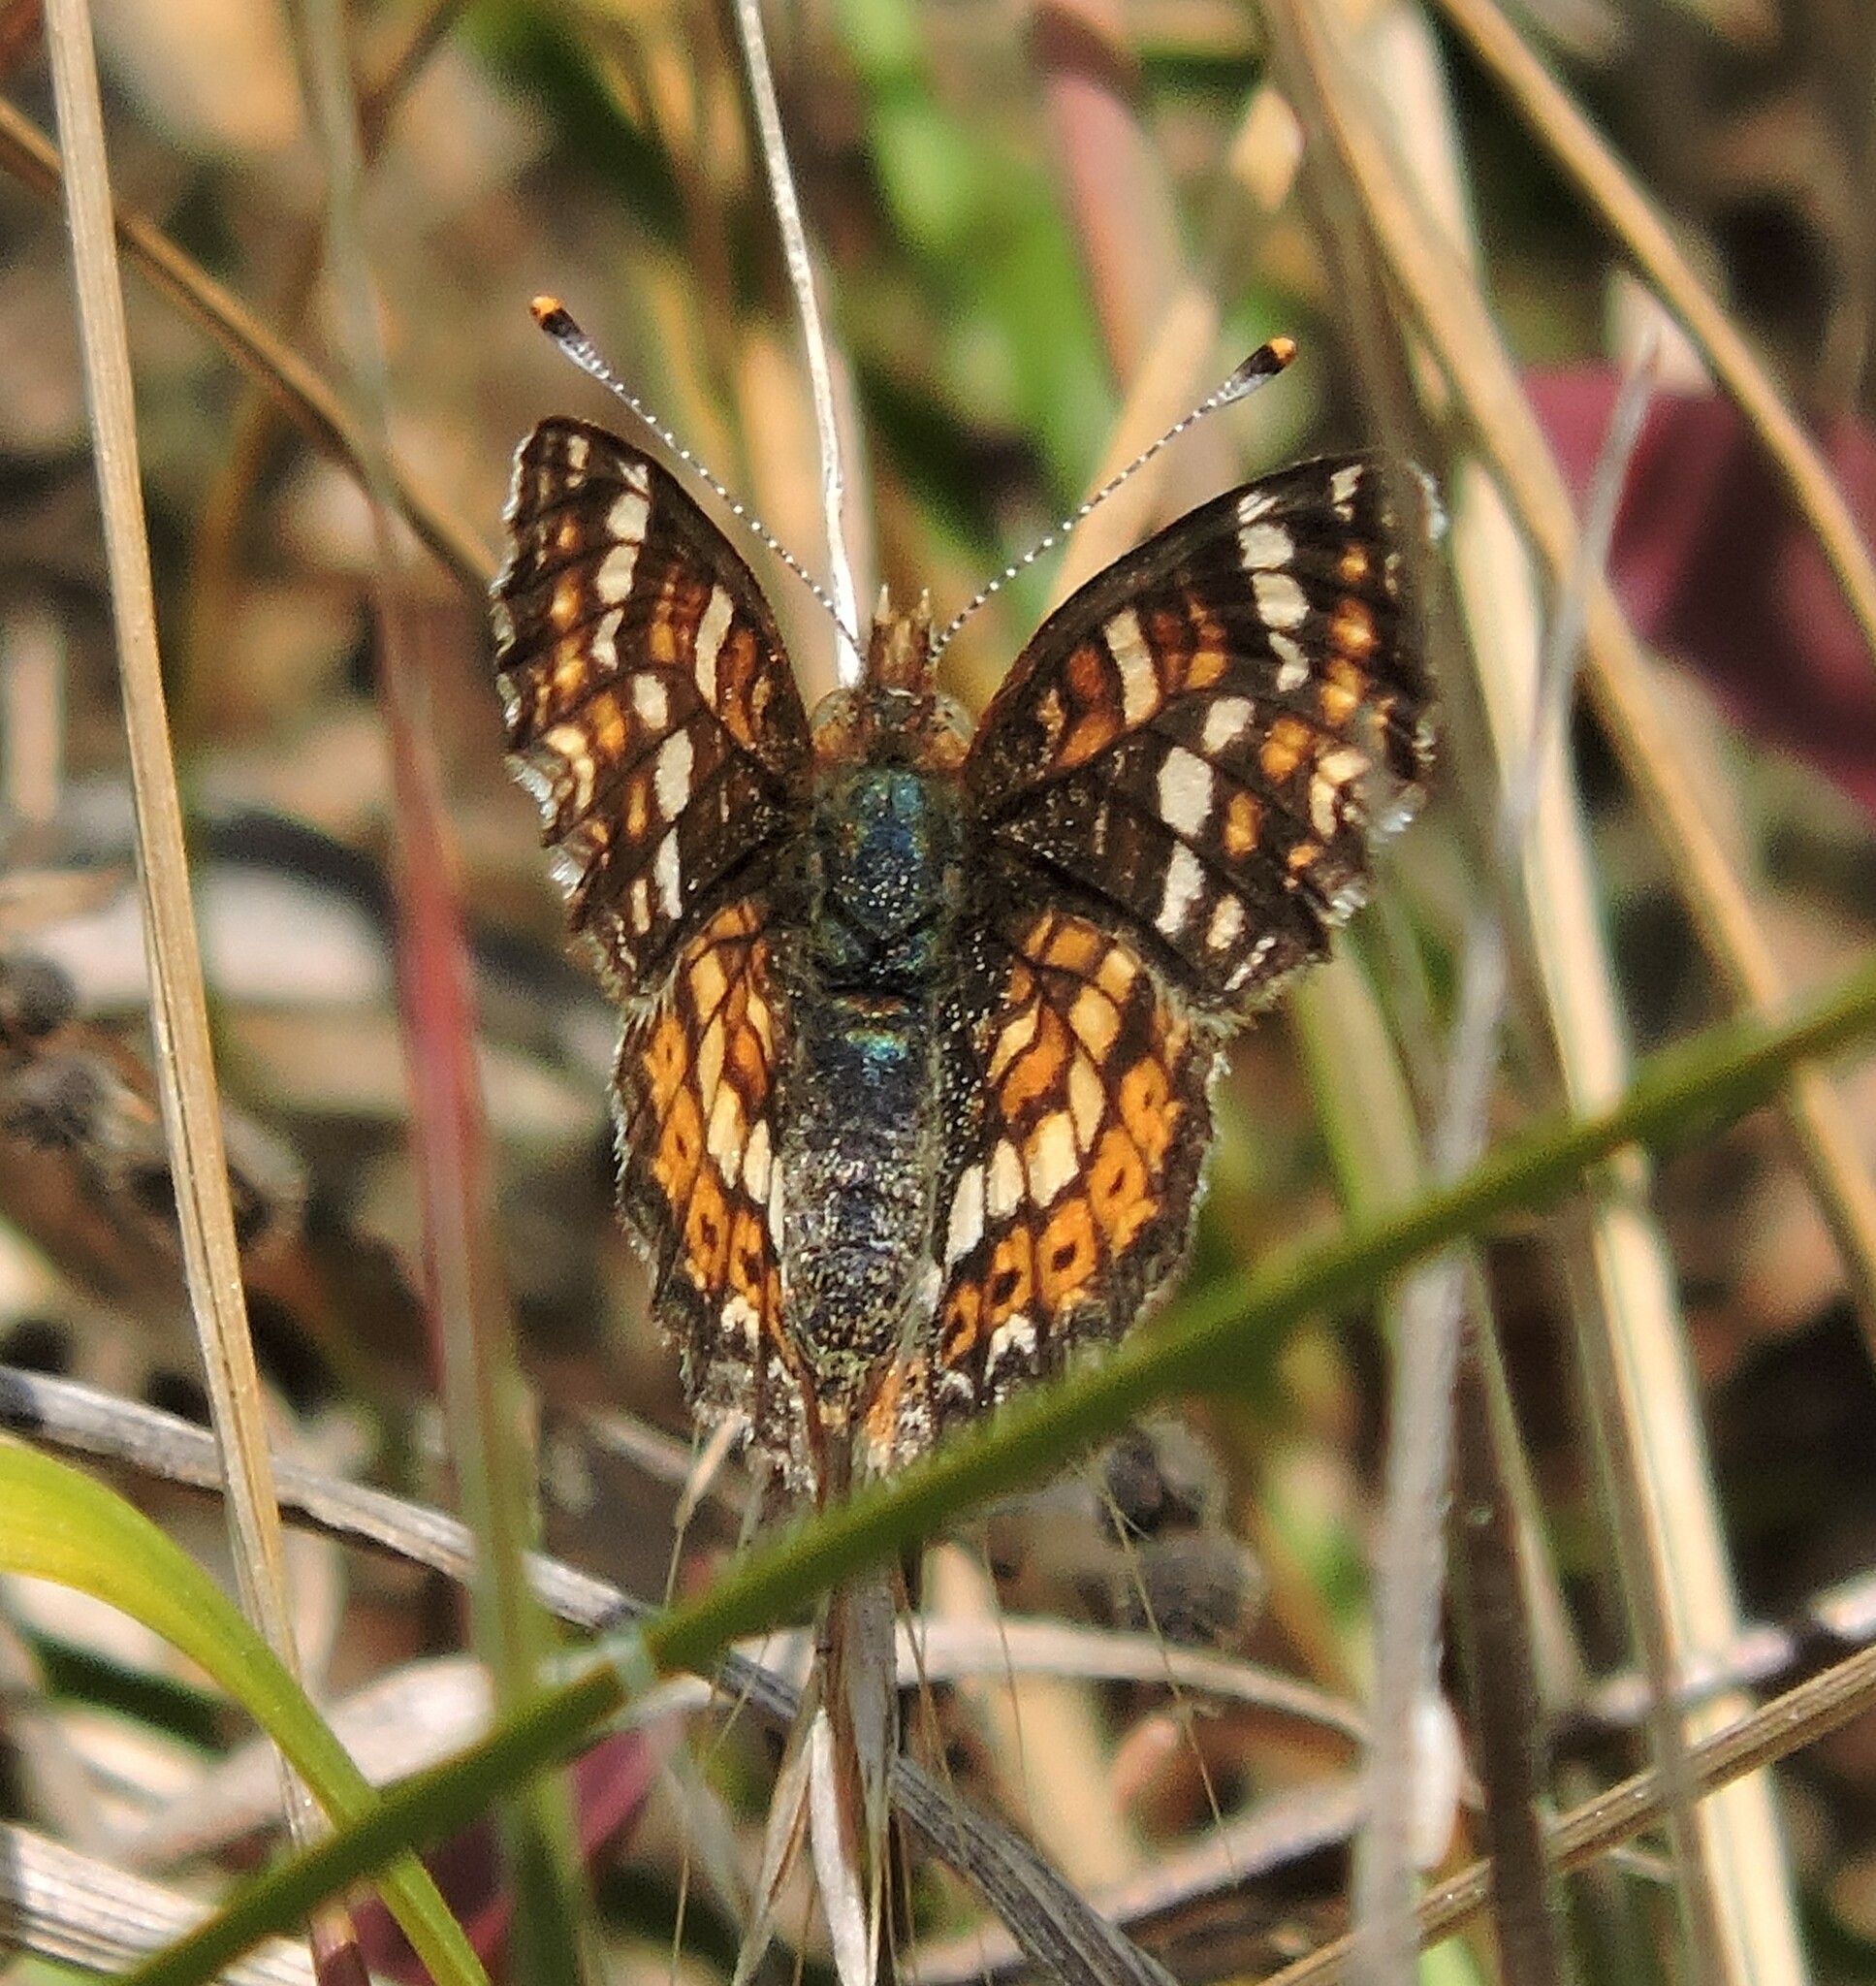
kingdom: Animalia
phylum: Arthropoda
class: Insecta
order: Lepidoptera
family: Nymphalidae
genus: Phyciodes
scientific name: Phyciodes tharos
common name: Pearl crescent
